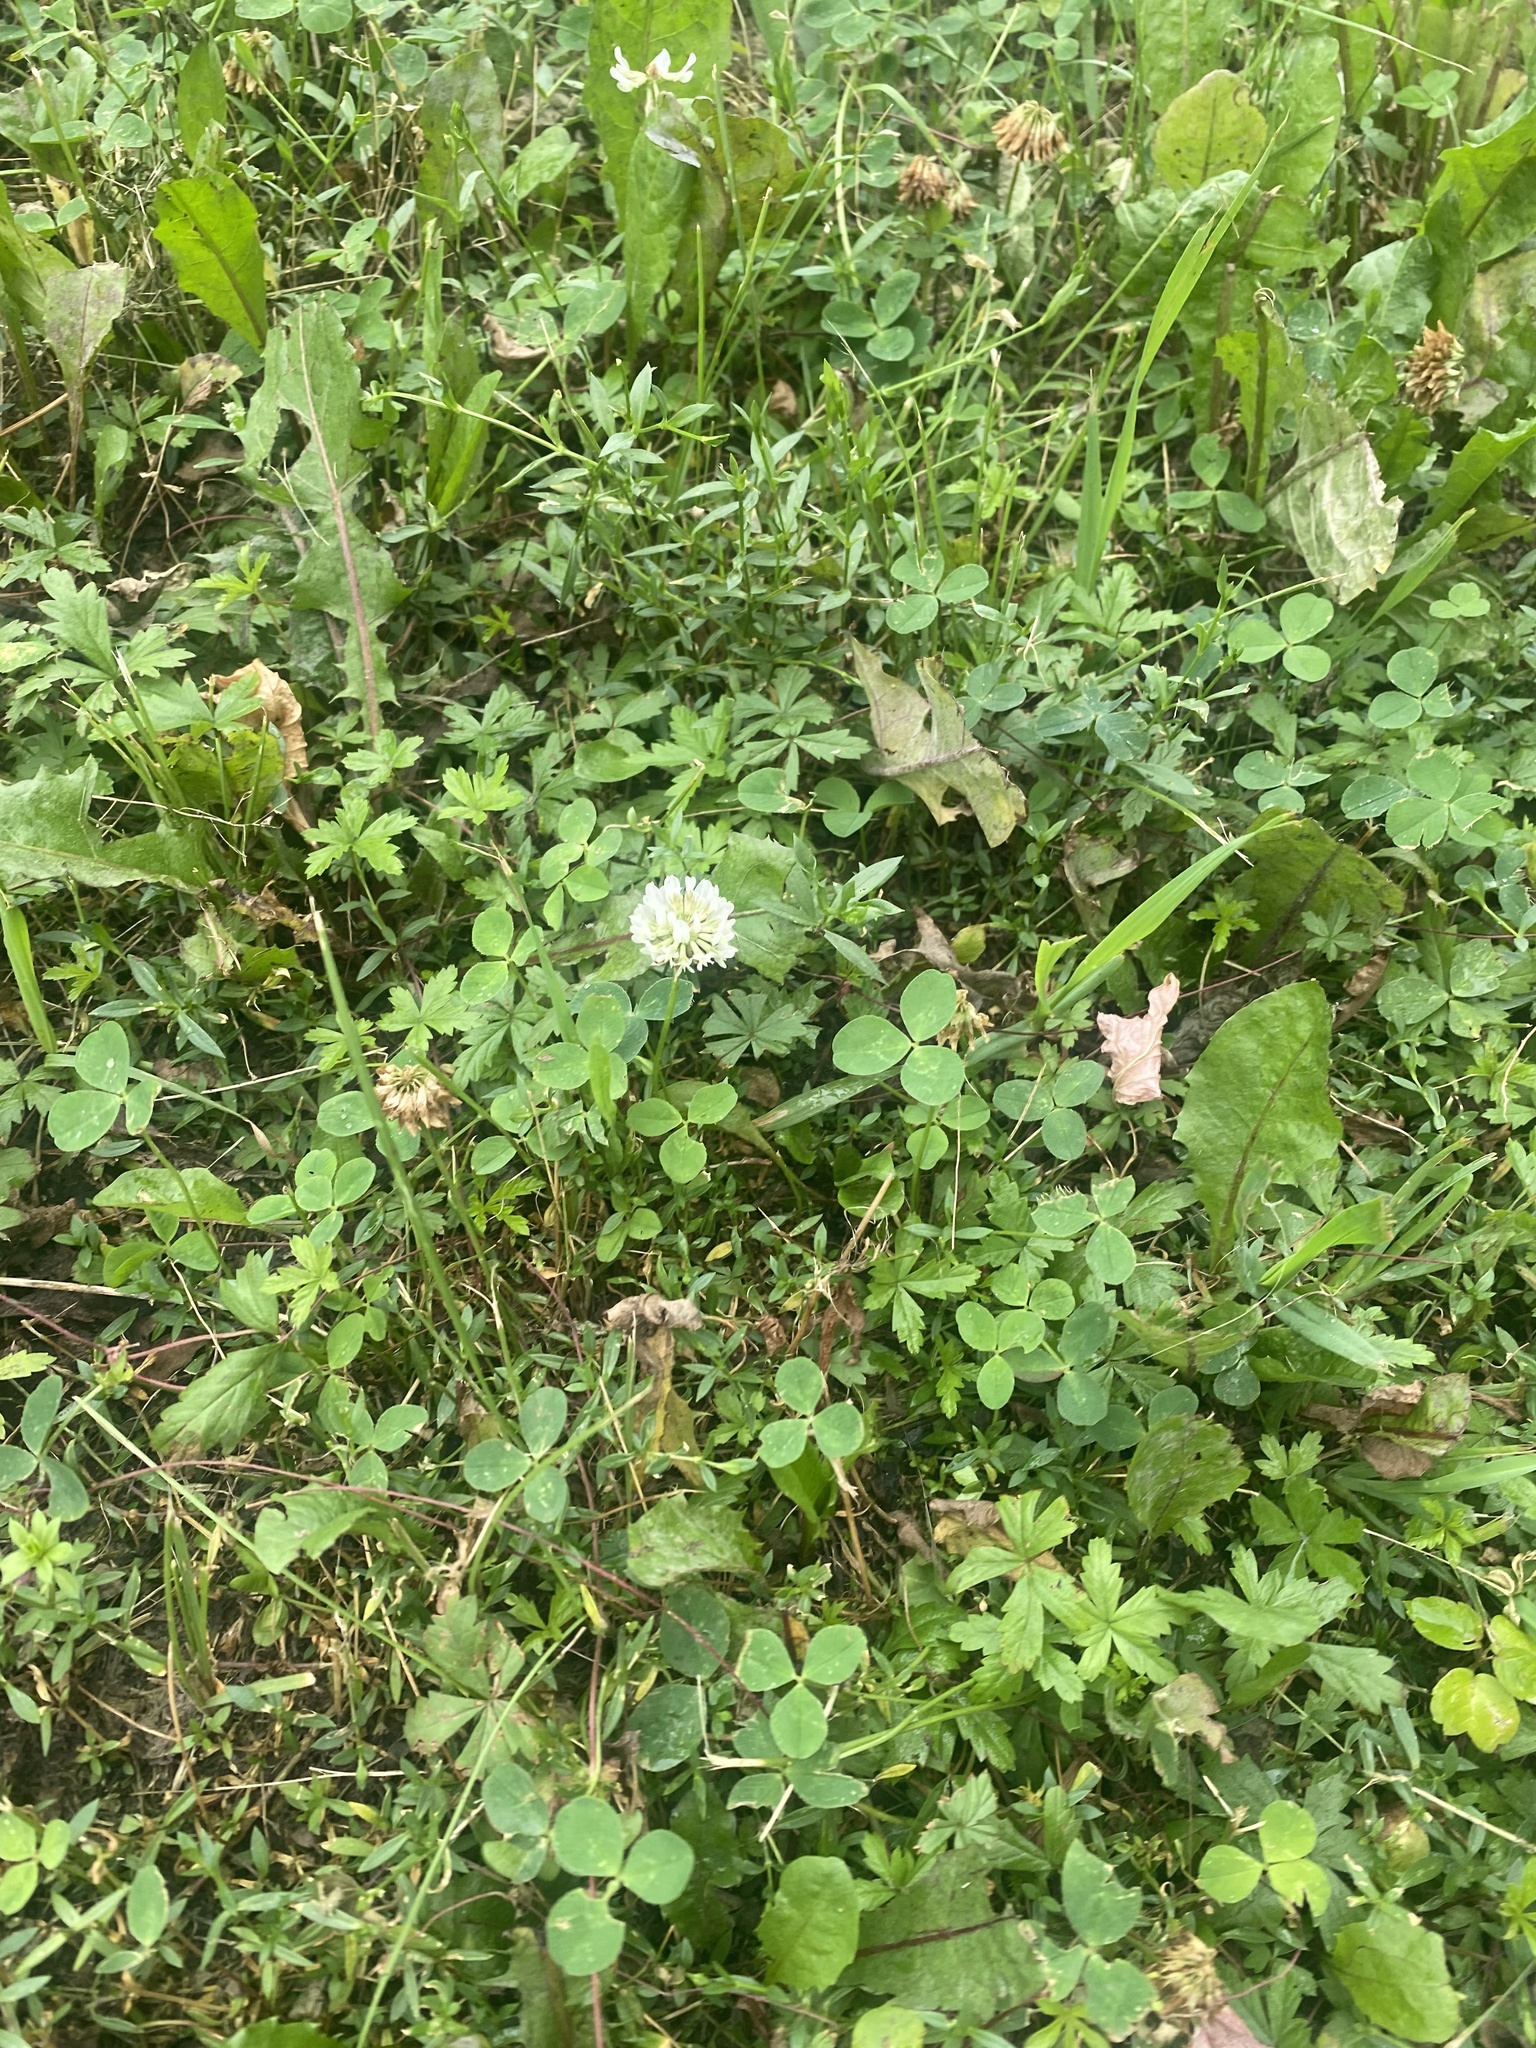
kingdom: Plantae
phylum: Tracheophyta
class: Magnoliopsida
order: Fabales
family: Fabaceae
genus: Trifolium
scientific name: Trifolium repens
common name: White clover
